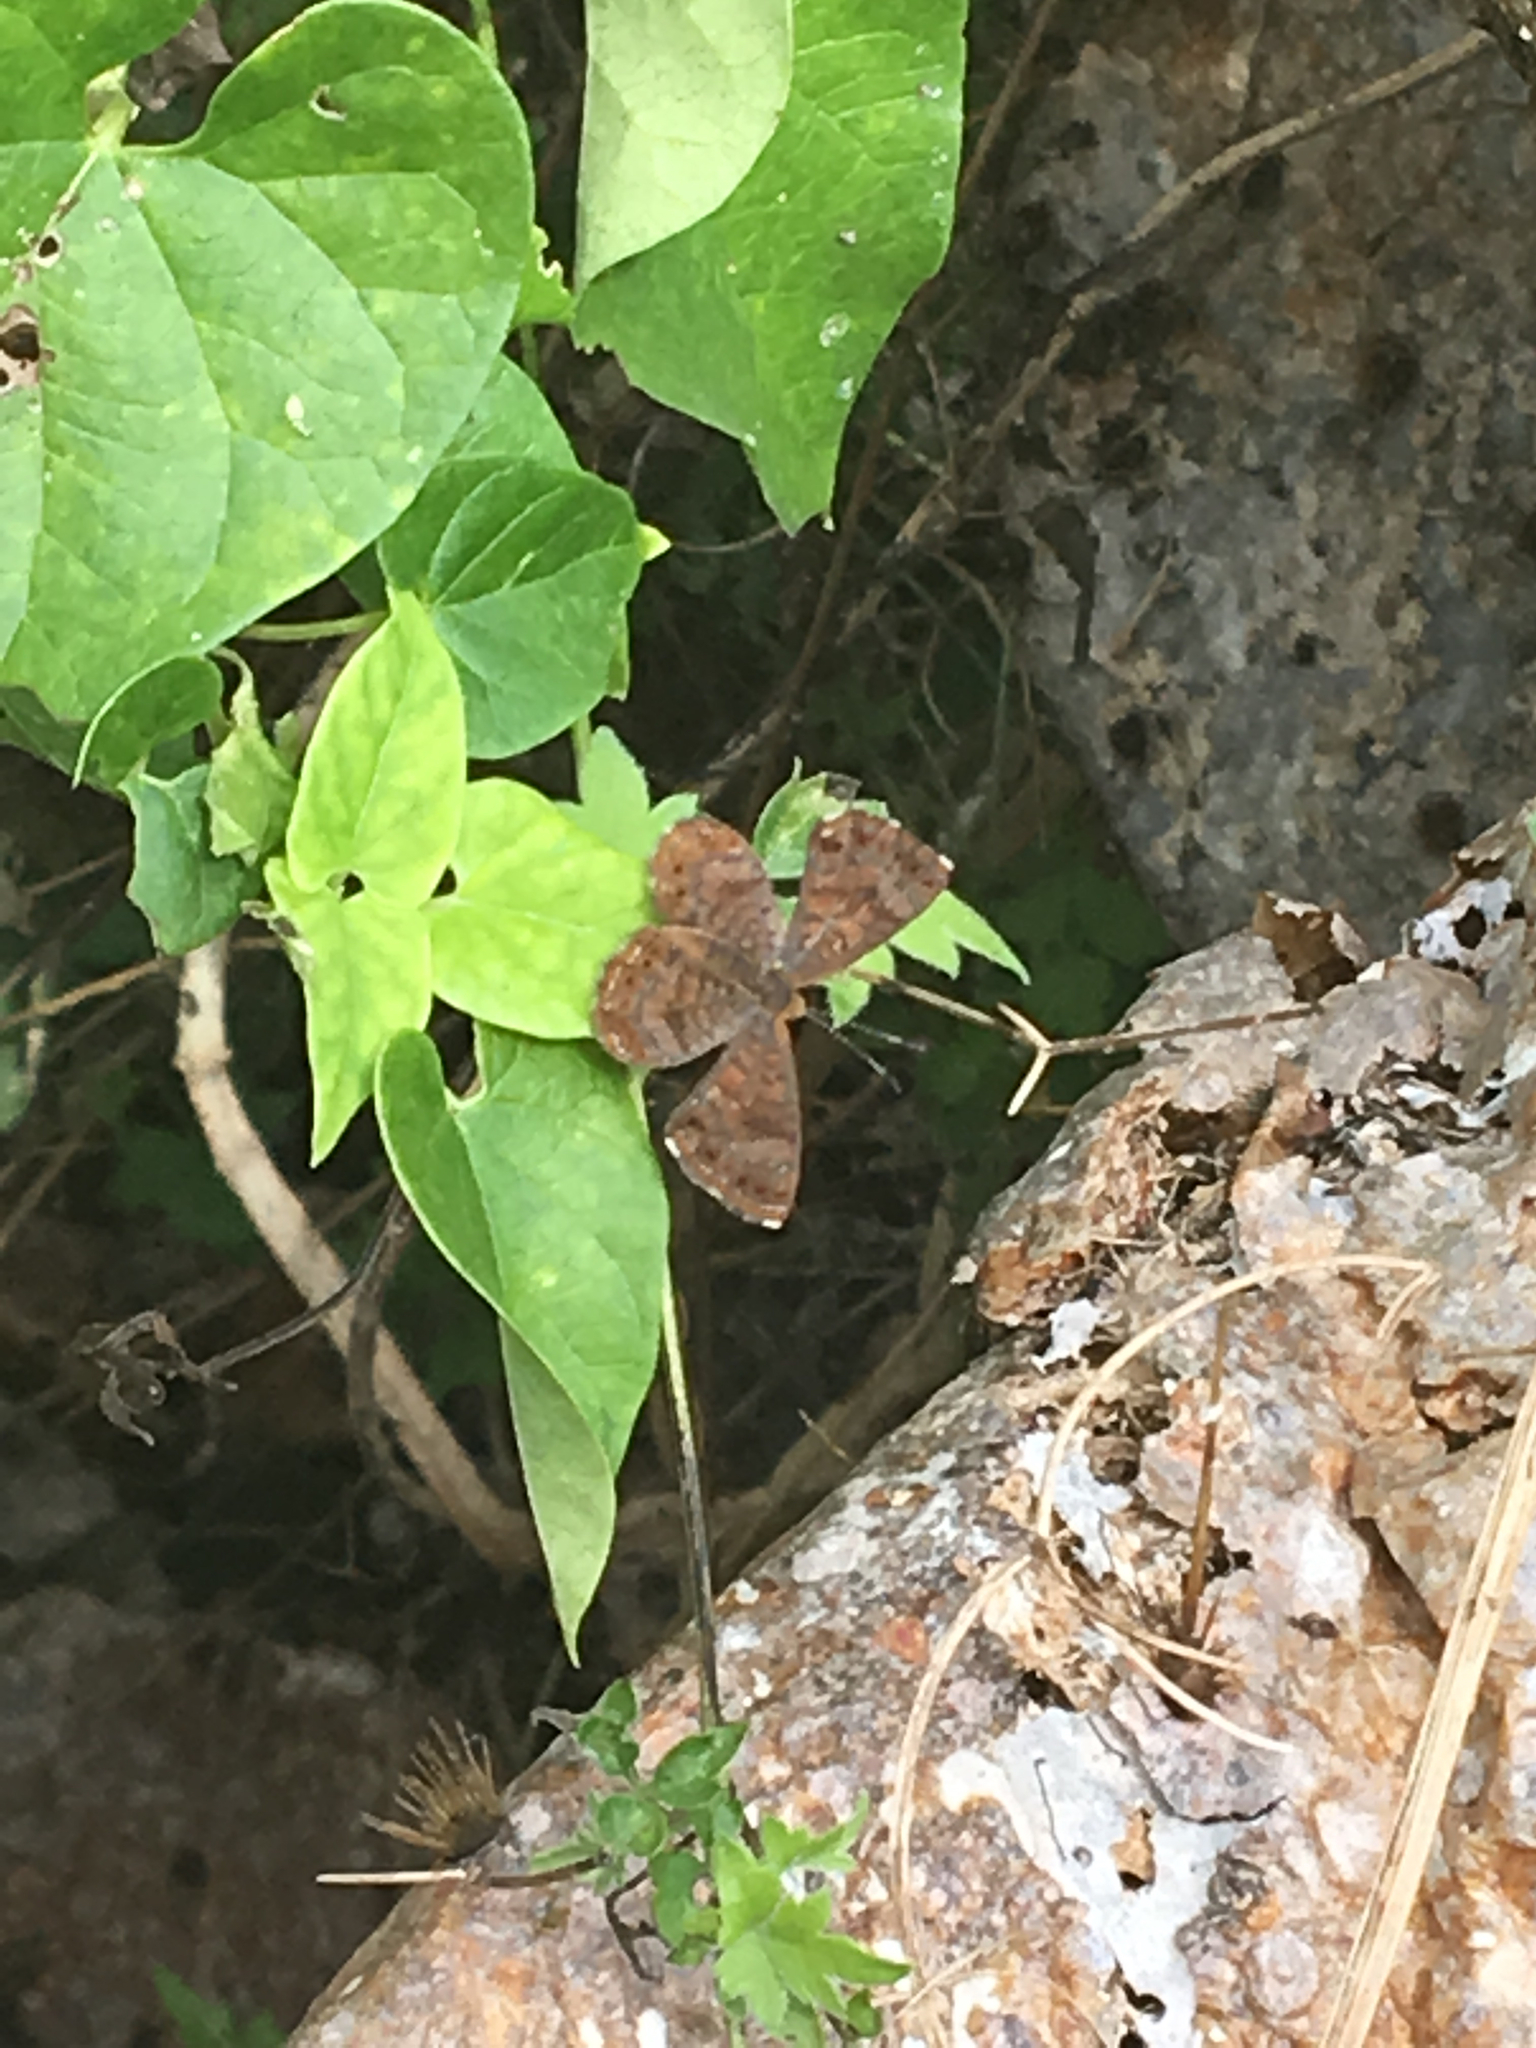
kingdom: Animalia
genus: Calephelis
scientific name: Calephelis nemesis
